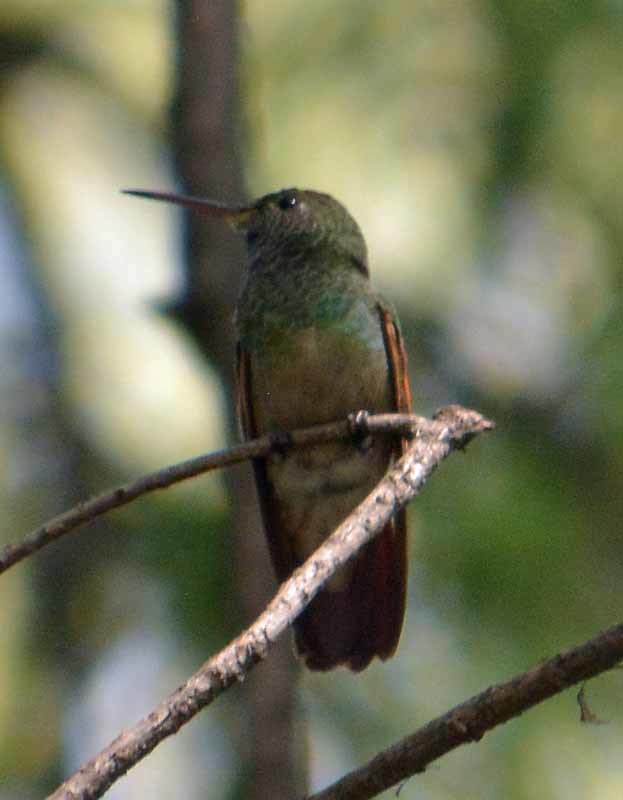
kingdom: Animalia
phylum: Chordata
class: Aves
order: Apodiformes
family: Trochilidae
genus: Saucerottia
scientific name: Saucerottia beryllina
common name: Berylline hummingbird
